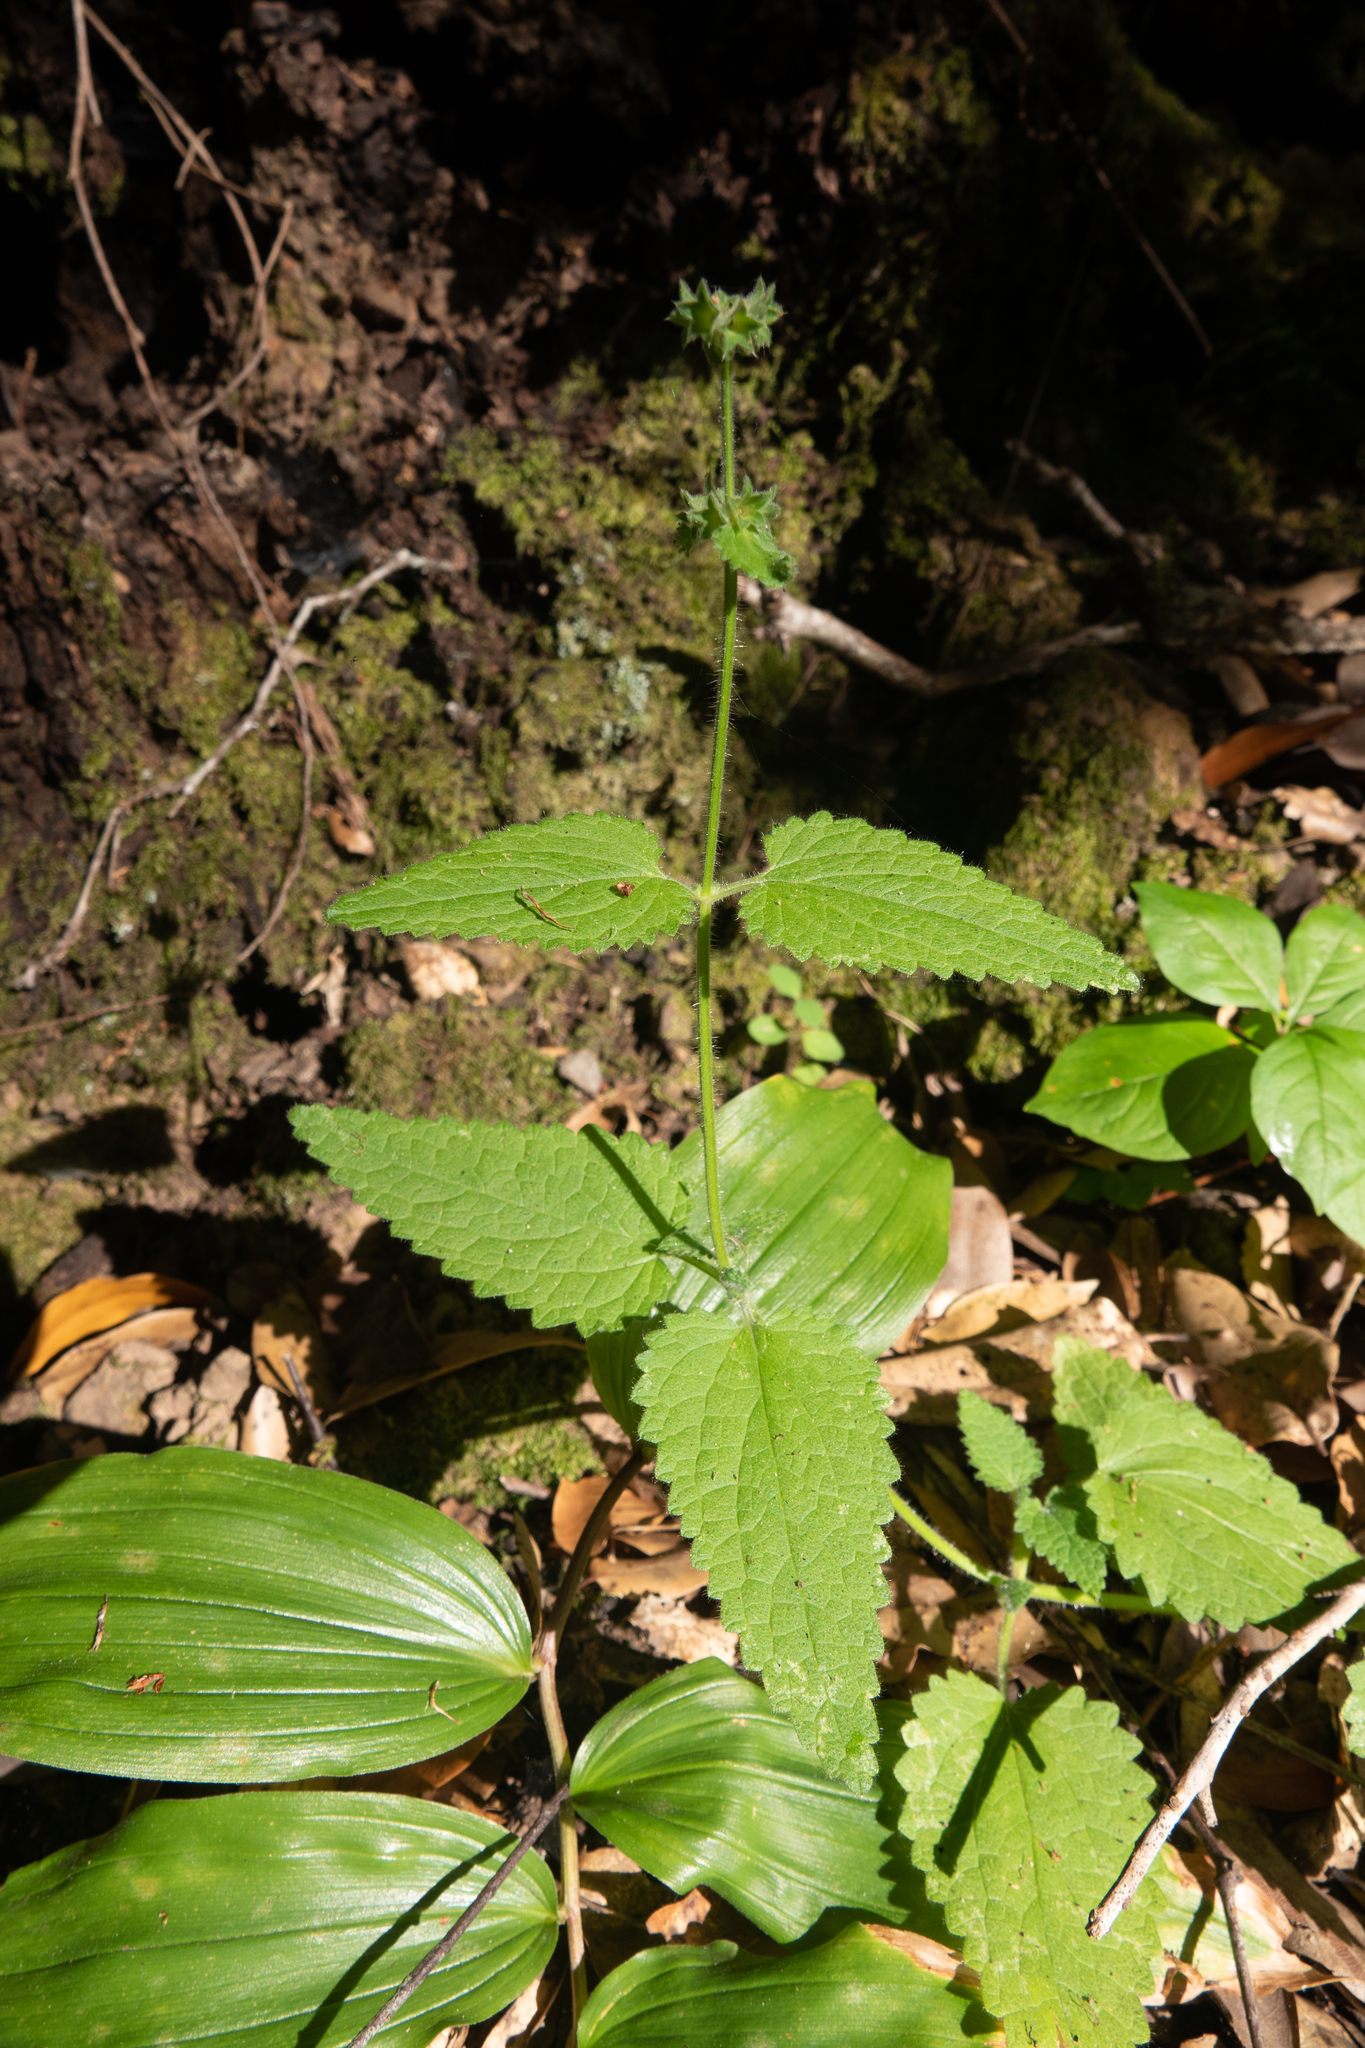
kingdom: Plantae
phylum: Tracheophyta
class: Magnoliopsida
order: Lamiales
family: Lamiaceae
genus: Stachys
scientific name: Stachys bullata
